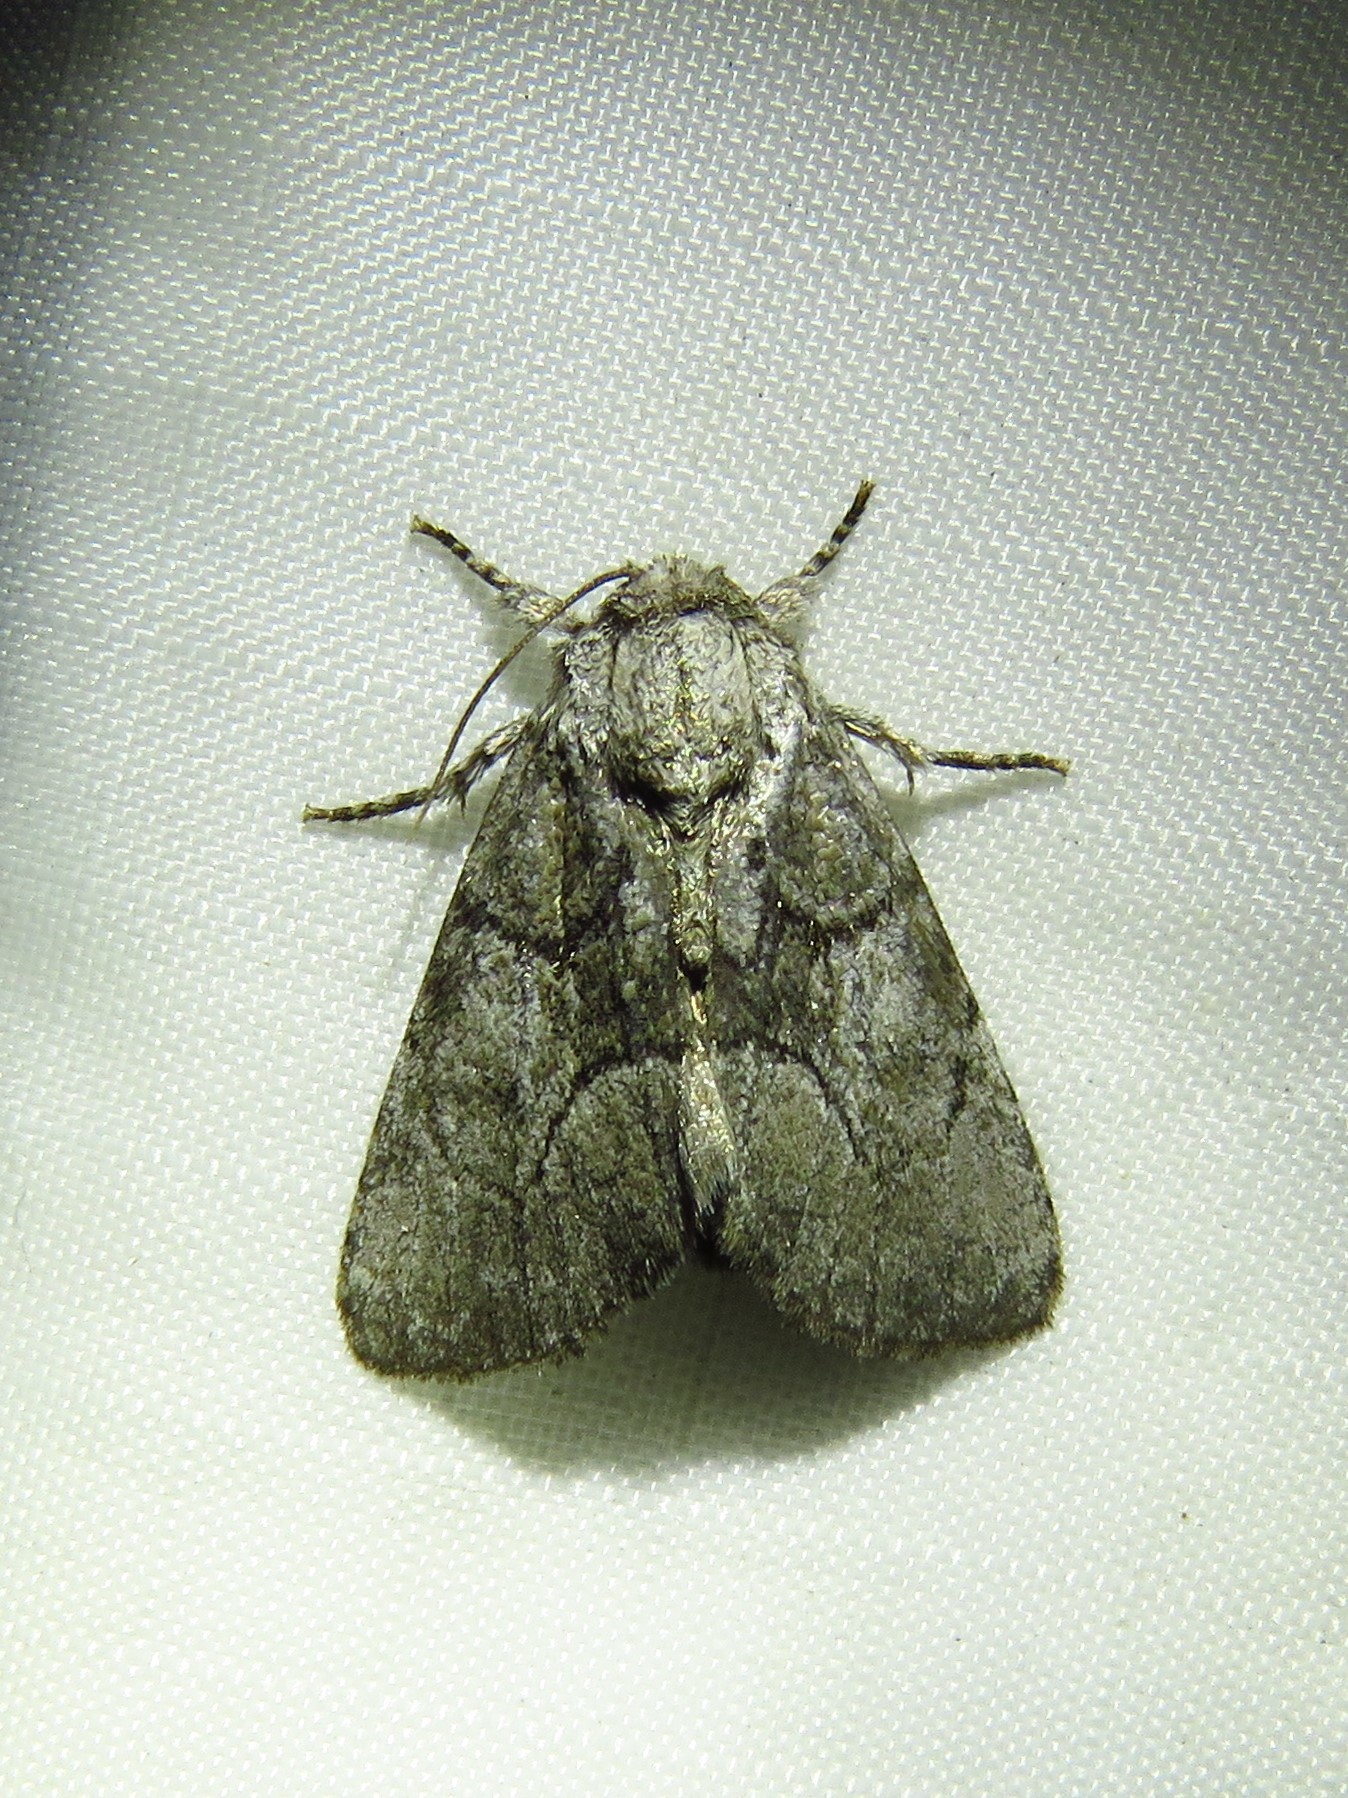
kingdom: Animalia
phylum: Arthropoda
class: Insecta
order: Lepidoptera
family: Noctuidae
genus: Raphia
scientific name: Raphia frater
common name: Brother
